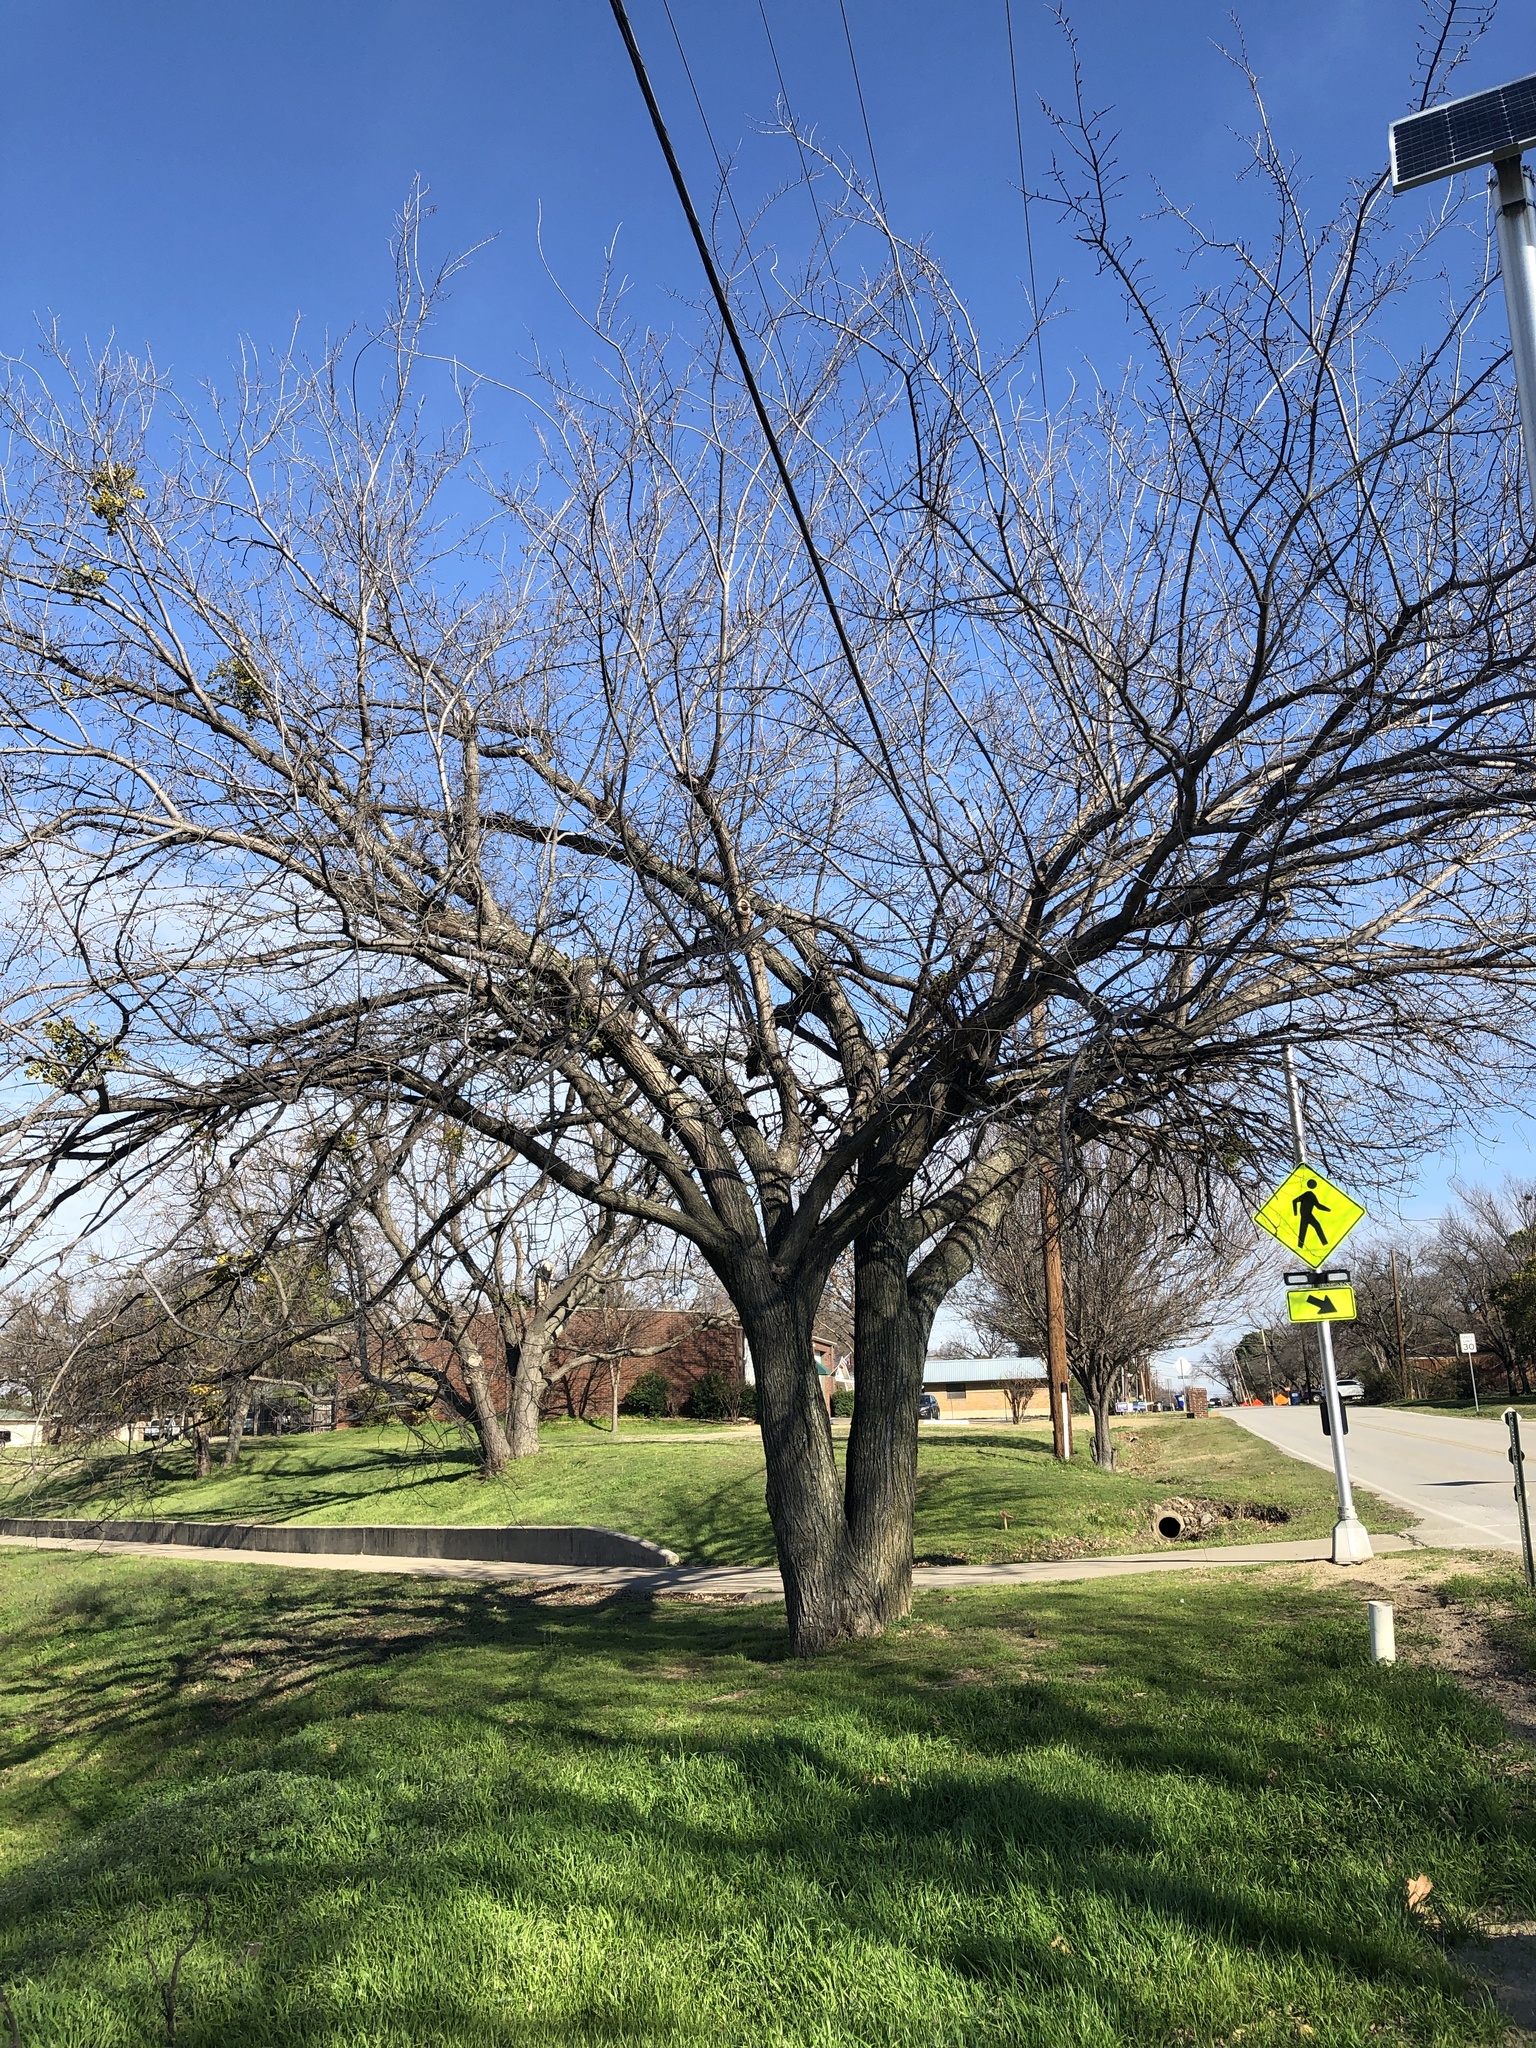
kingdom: Plantae
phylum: Tracheophyta
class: Magnoliopsida
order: Rosales
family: Ulmaceae
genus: Ulmus
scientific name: Ulmus americana
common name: American elm
